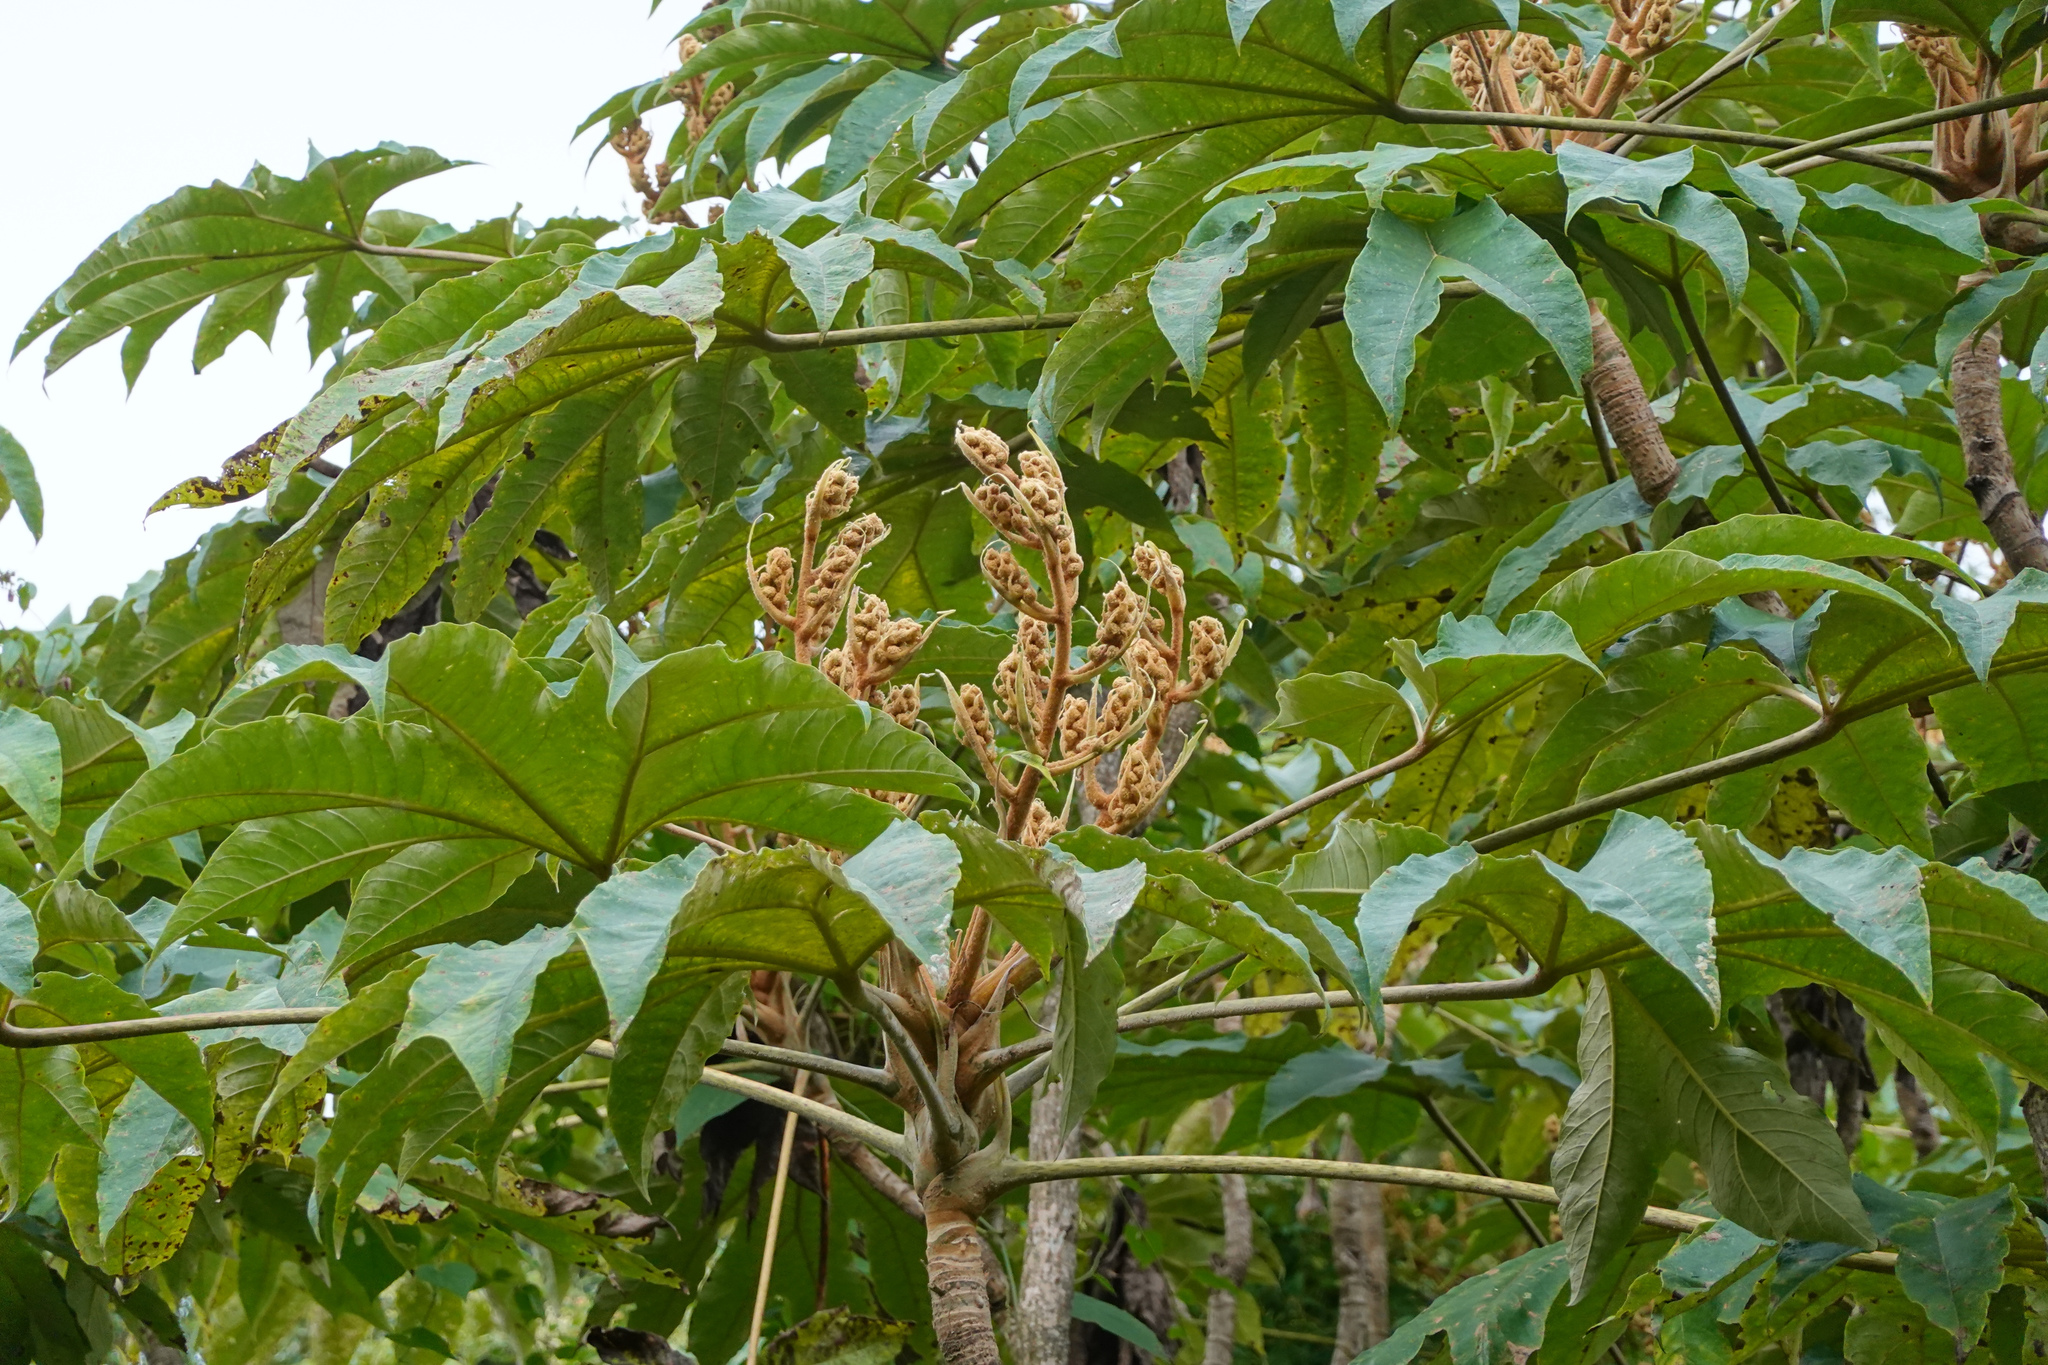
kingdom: Plantae
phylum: Tracheophyta
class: Magnoliopsida
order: Apiales
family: Araliaceae
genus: Tetrapanax
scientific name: Tetrapanax papyrifer
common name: Rice-paper plant
